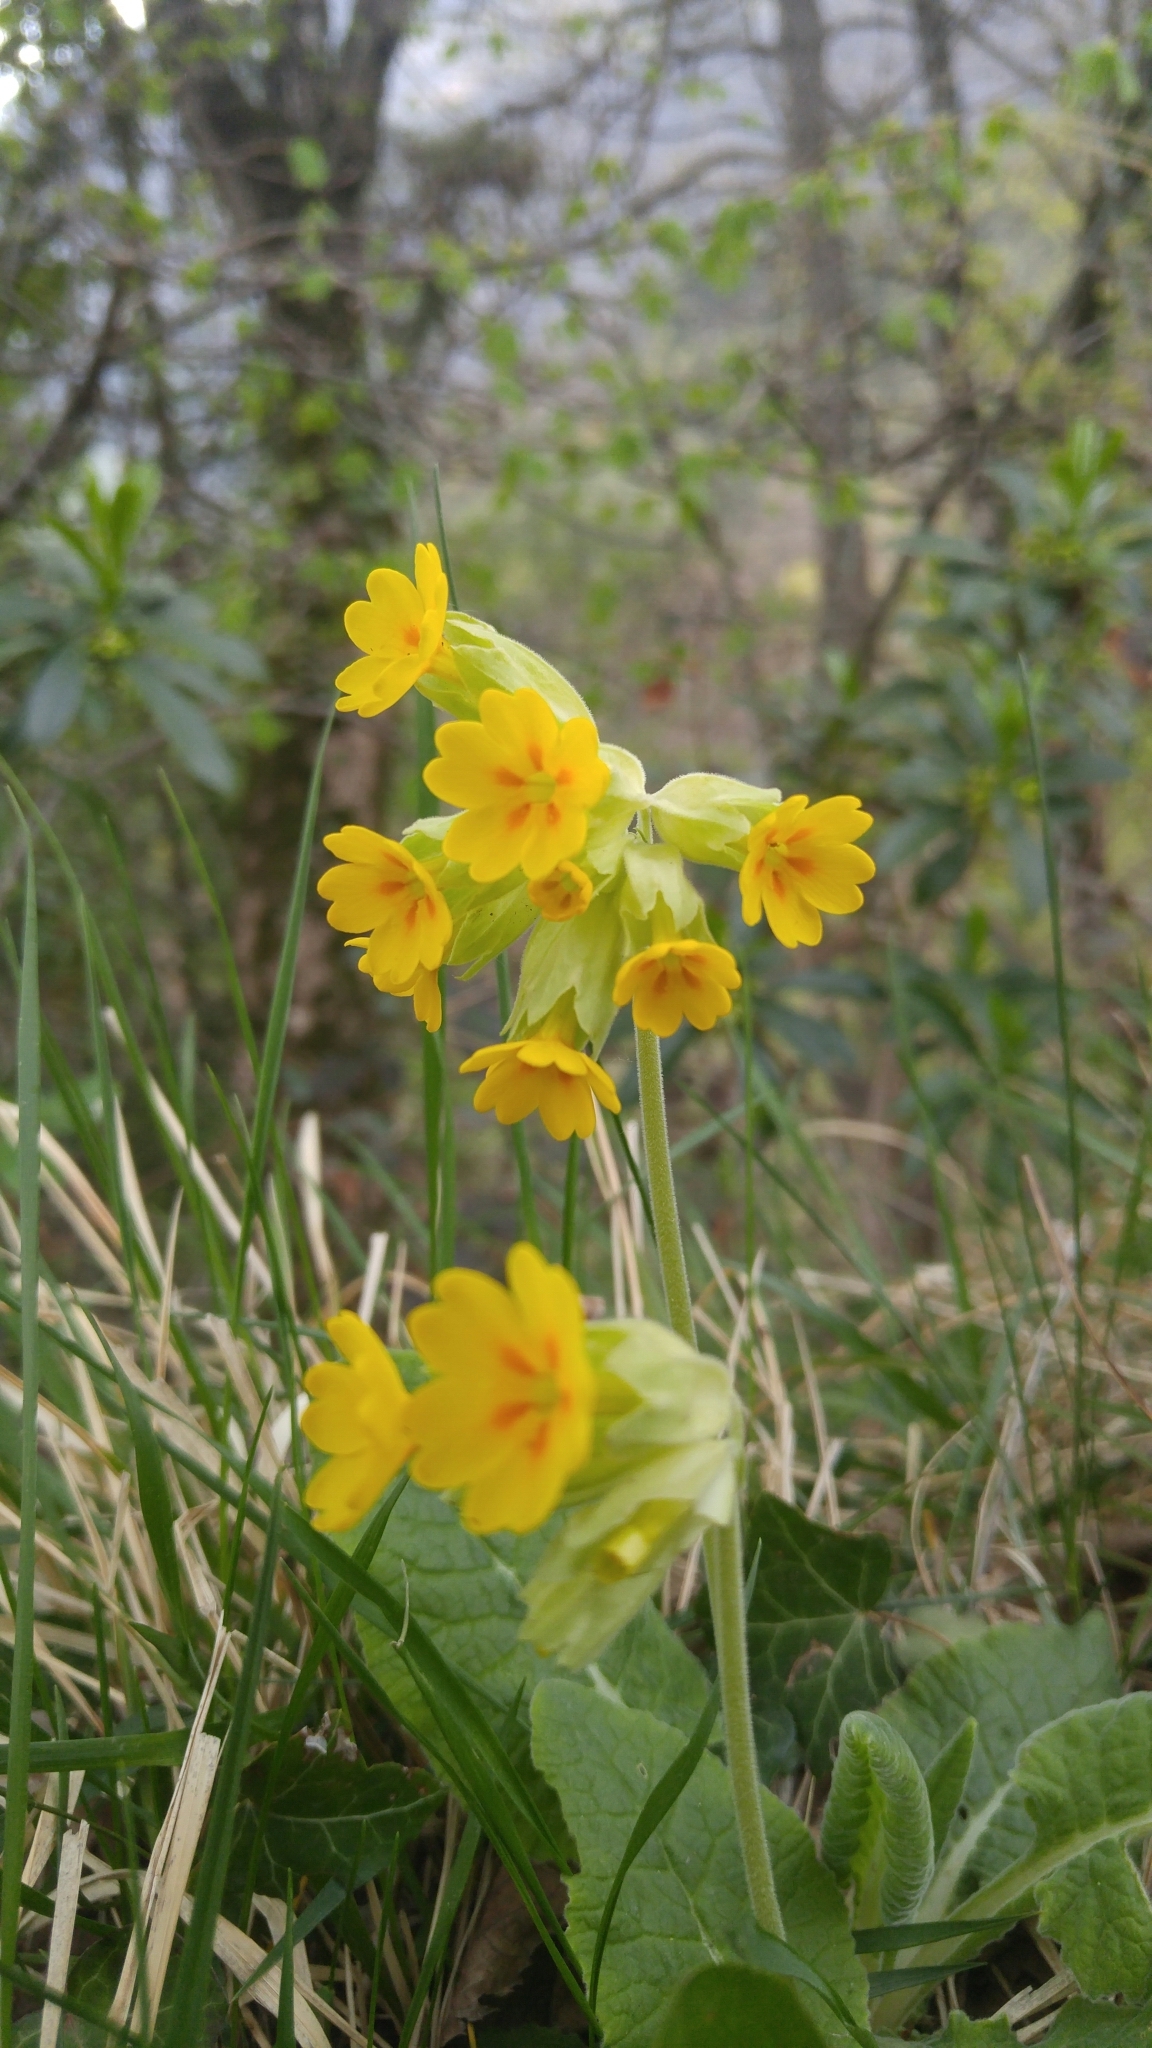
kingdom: Plantae
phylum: Tracheophyta
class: Magnoliopsida
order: Ericales
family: Primulaceae
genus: Primula
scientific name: Primula veris
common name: Cowslip
